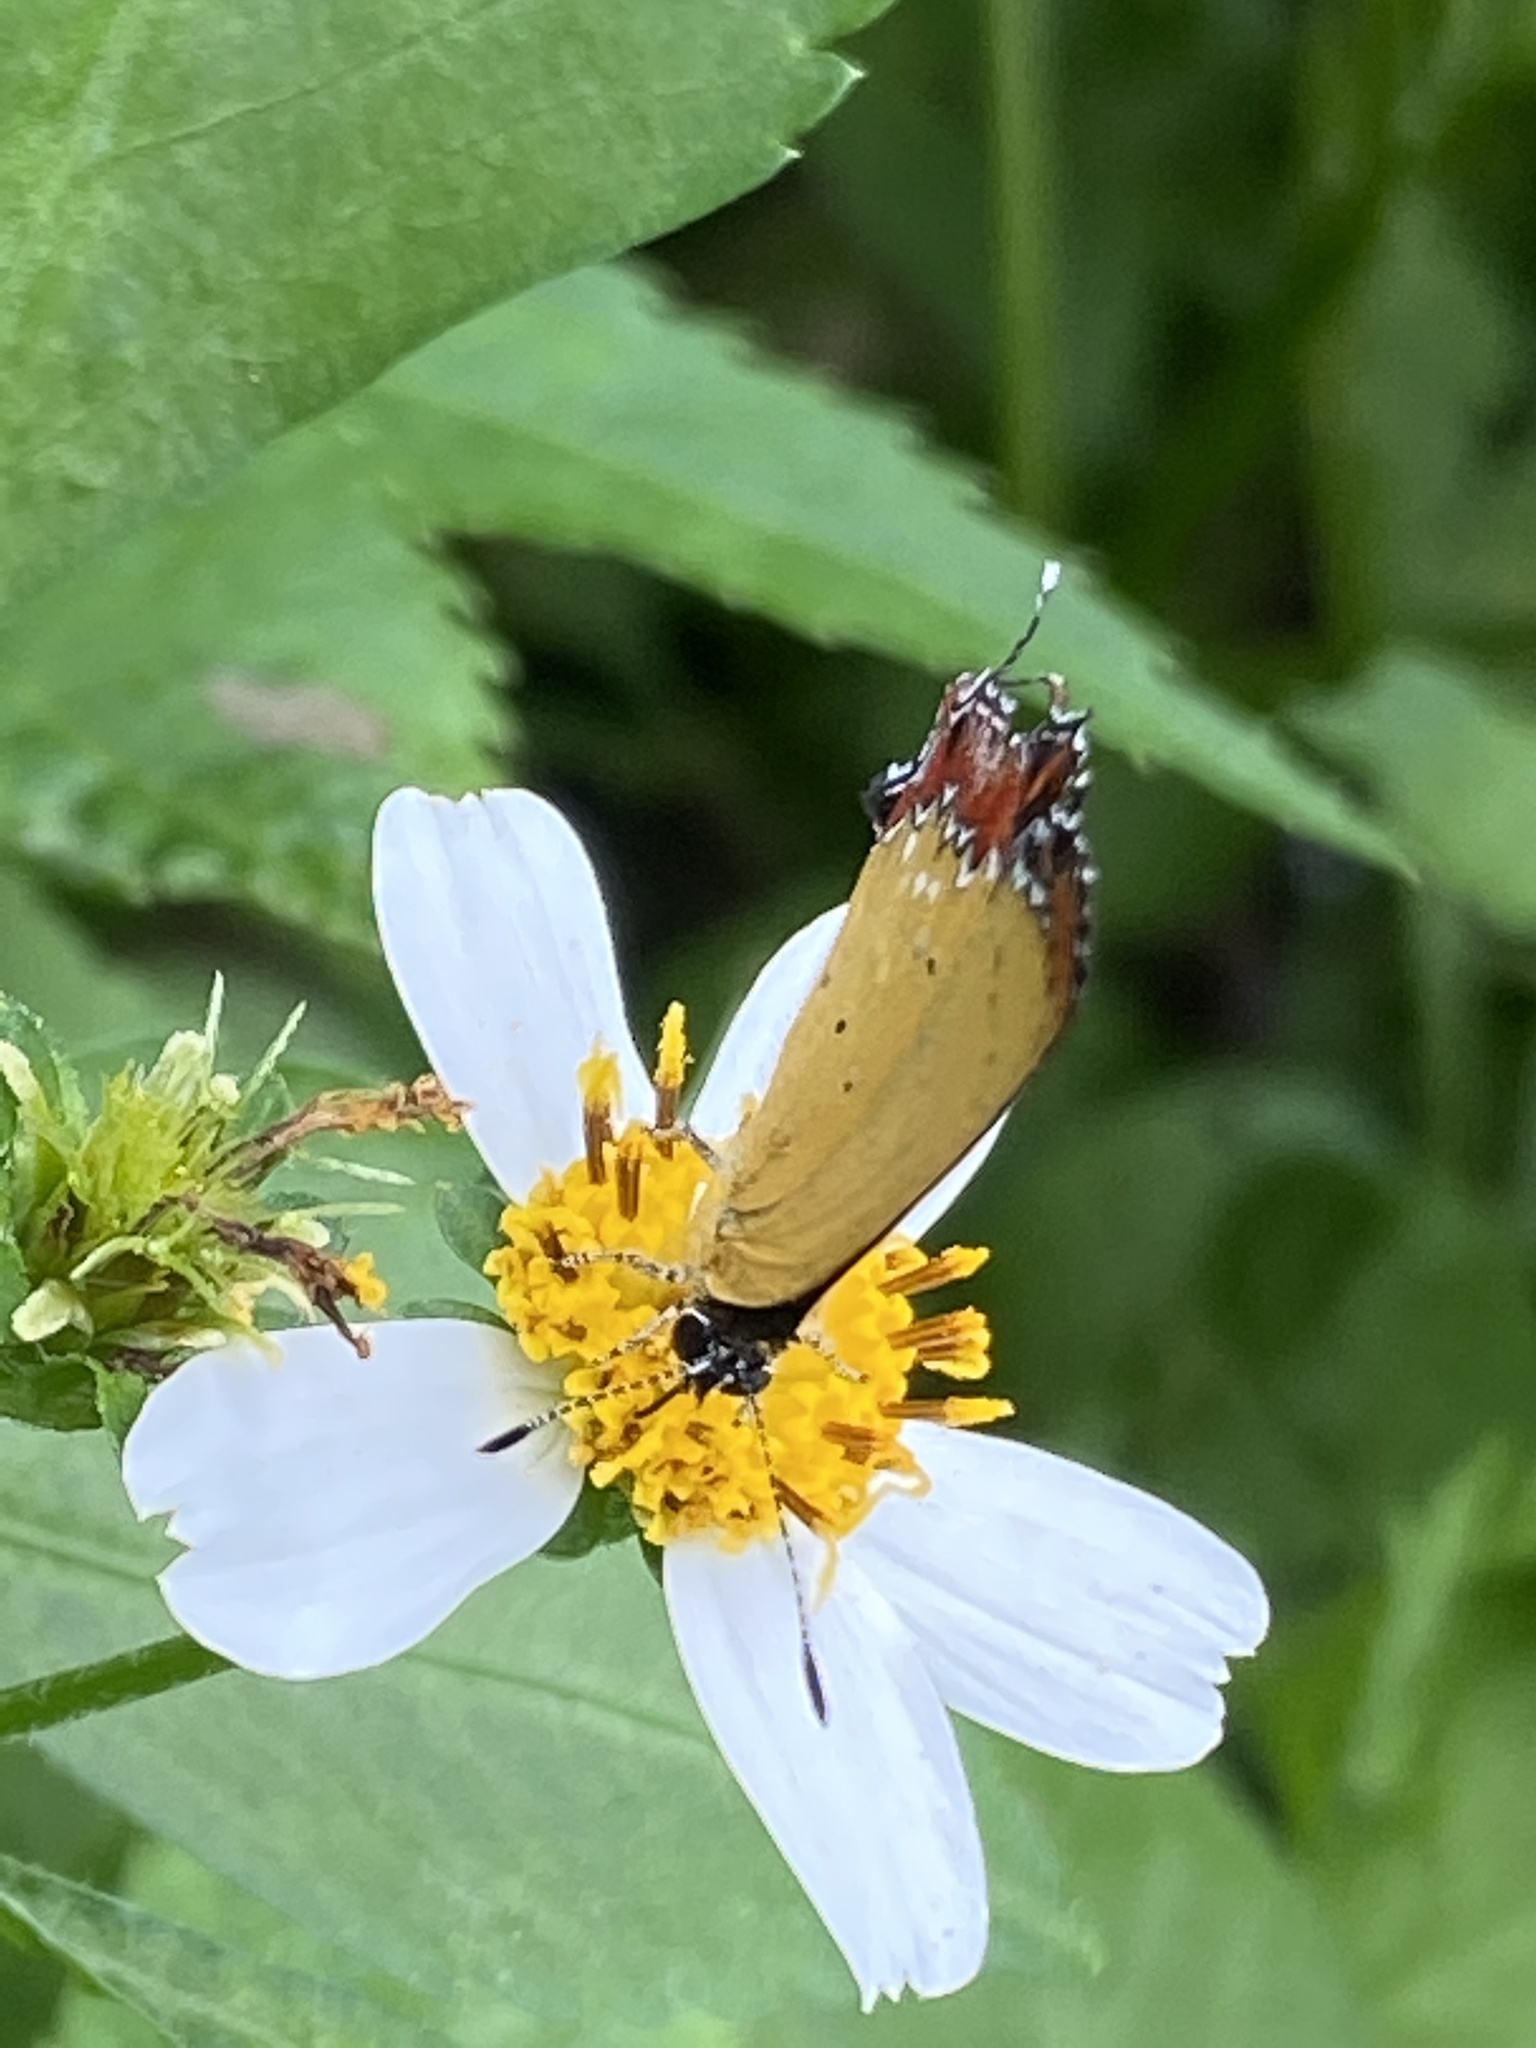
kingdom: Animalia
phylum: Arthropoda
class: Insecta
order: Lepidoptera
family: Lycaenidae
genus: Heliophorus
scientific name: Heliophorus ila
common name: Restricted purple sapphire
